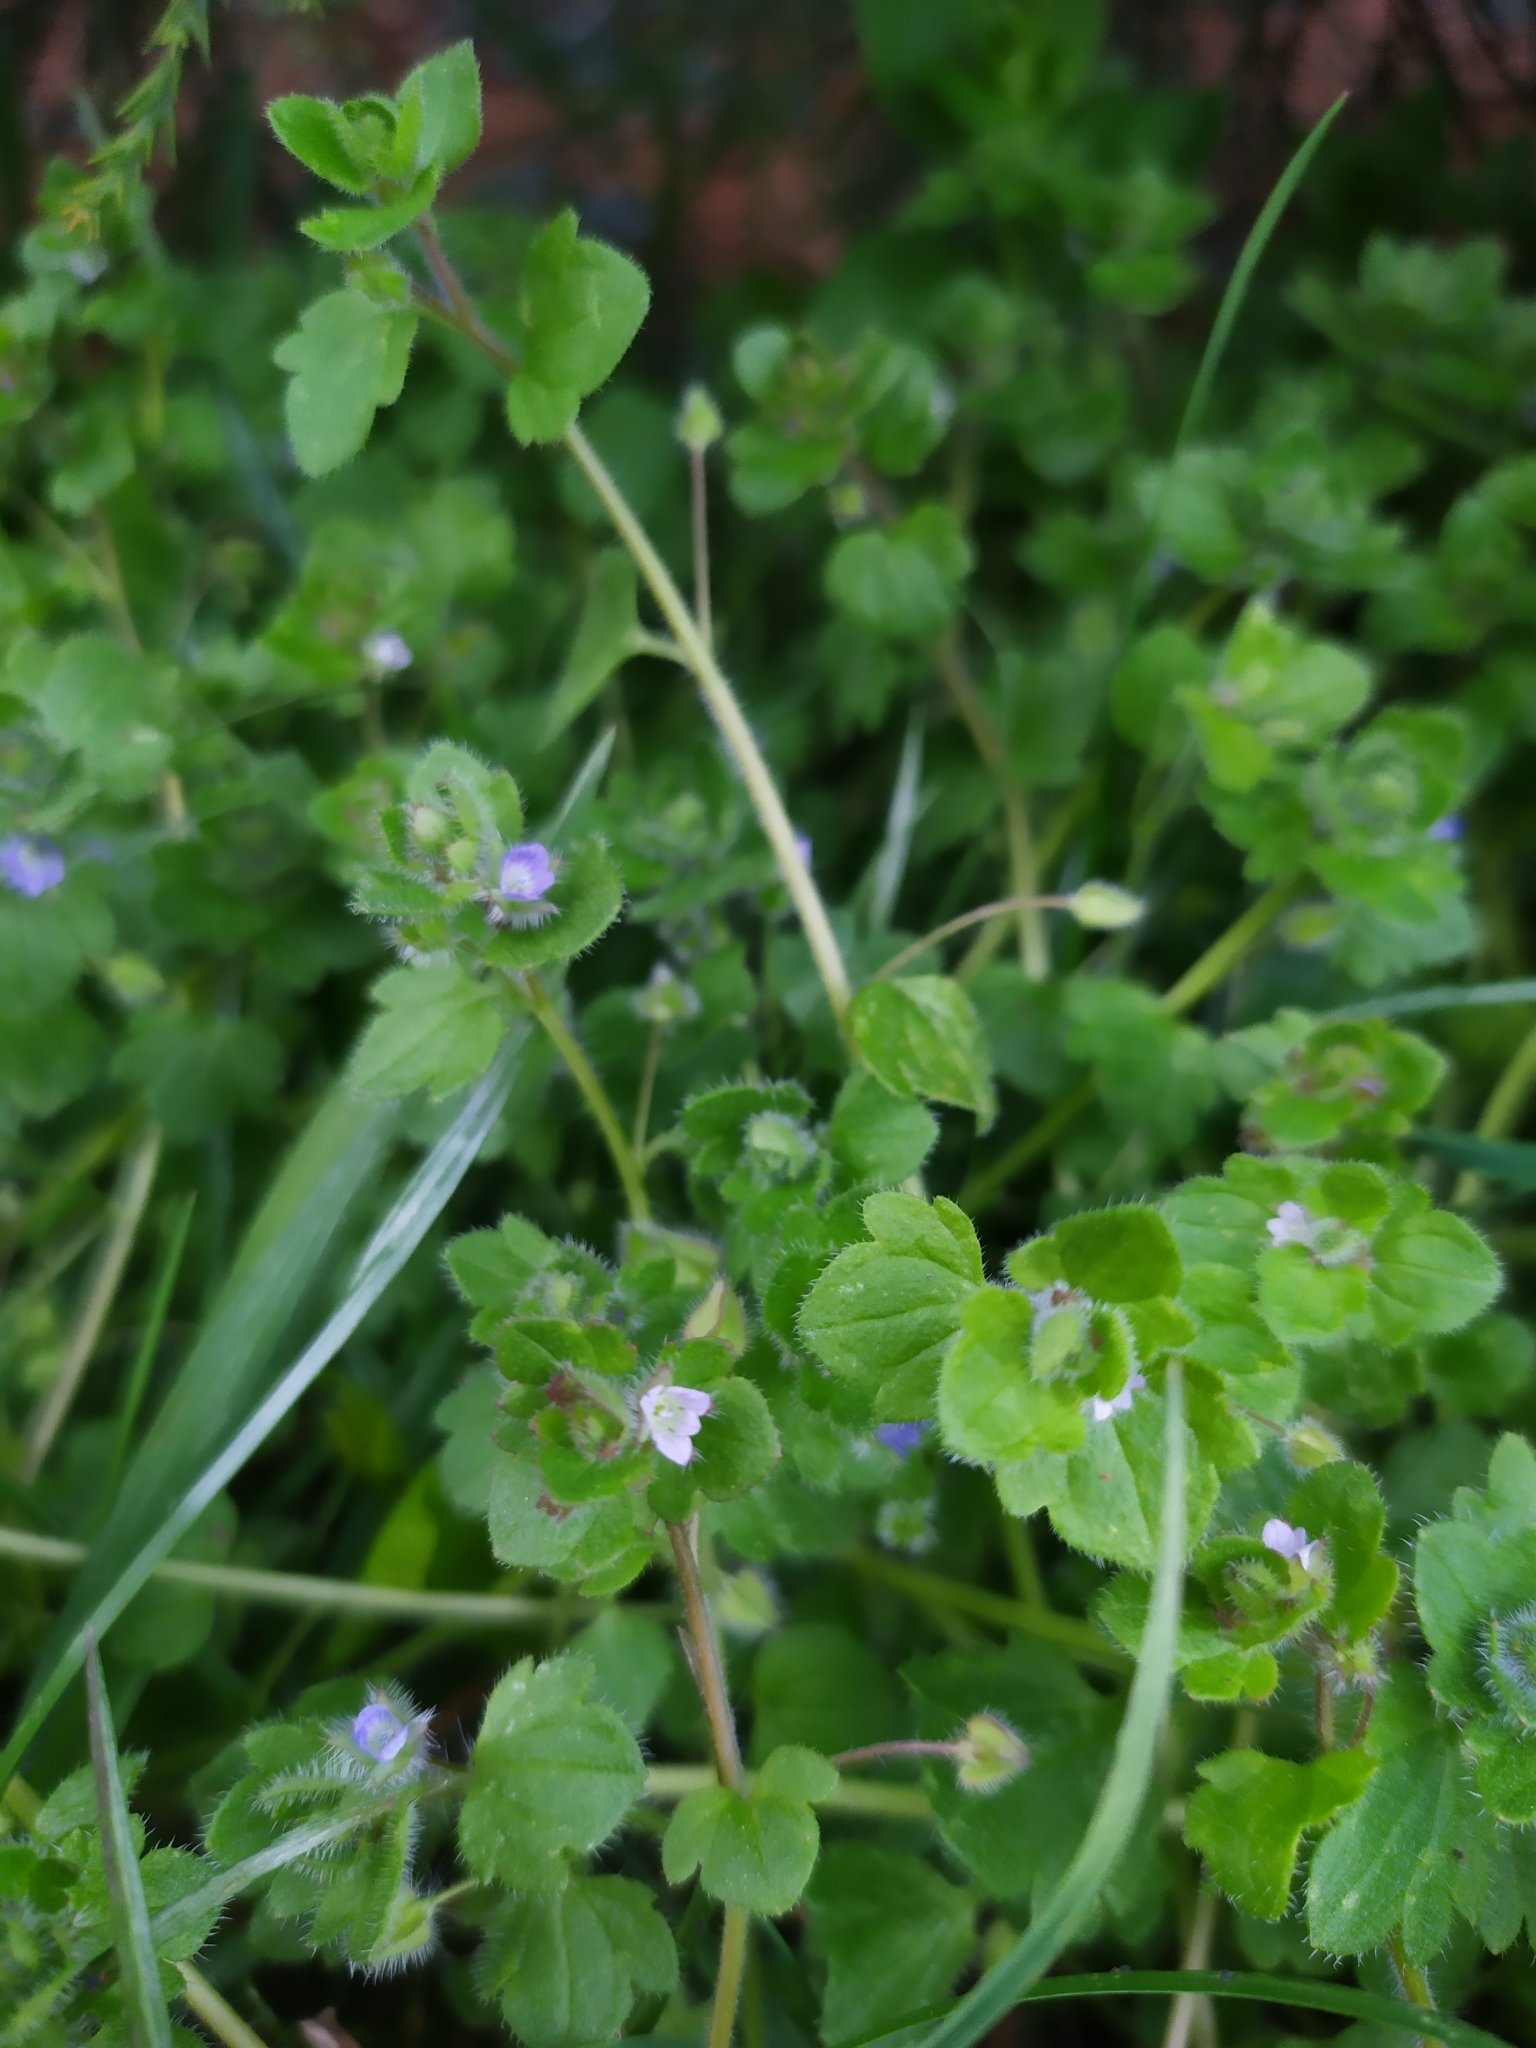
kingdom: Plantae
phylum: Tracheophyta
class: Magnoliopsida
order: Lamiales
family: Plantaginaceae
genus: Veronica
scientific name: Veronica sublobata
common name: False ivy-leaved speedwell
